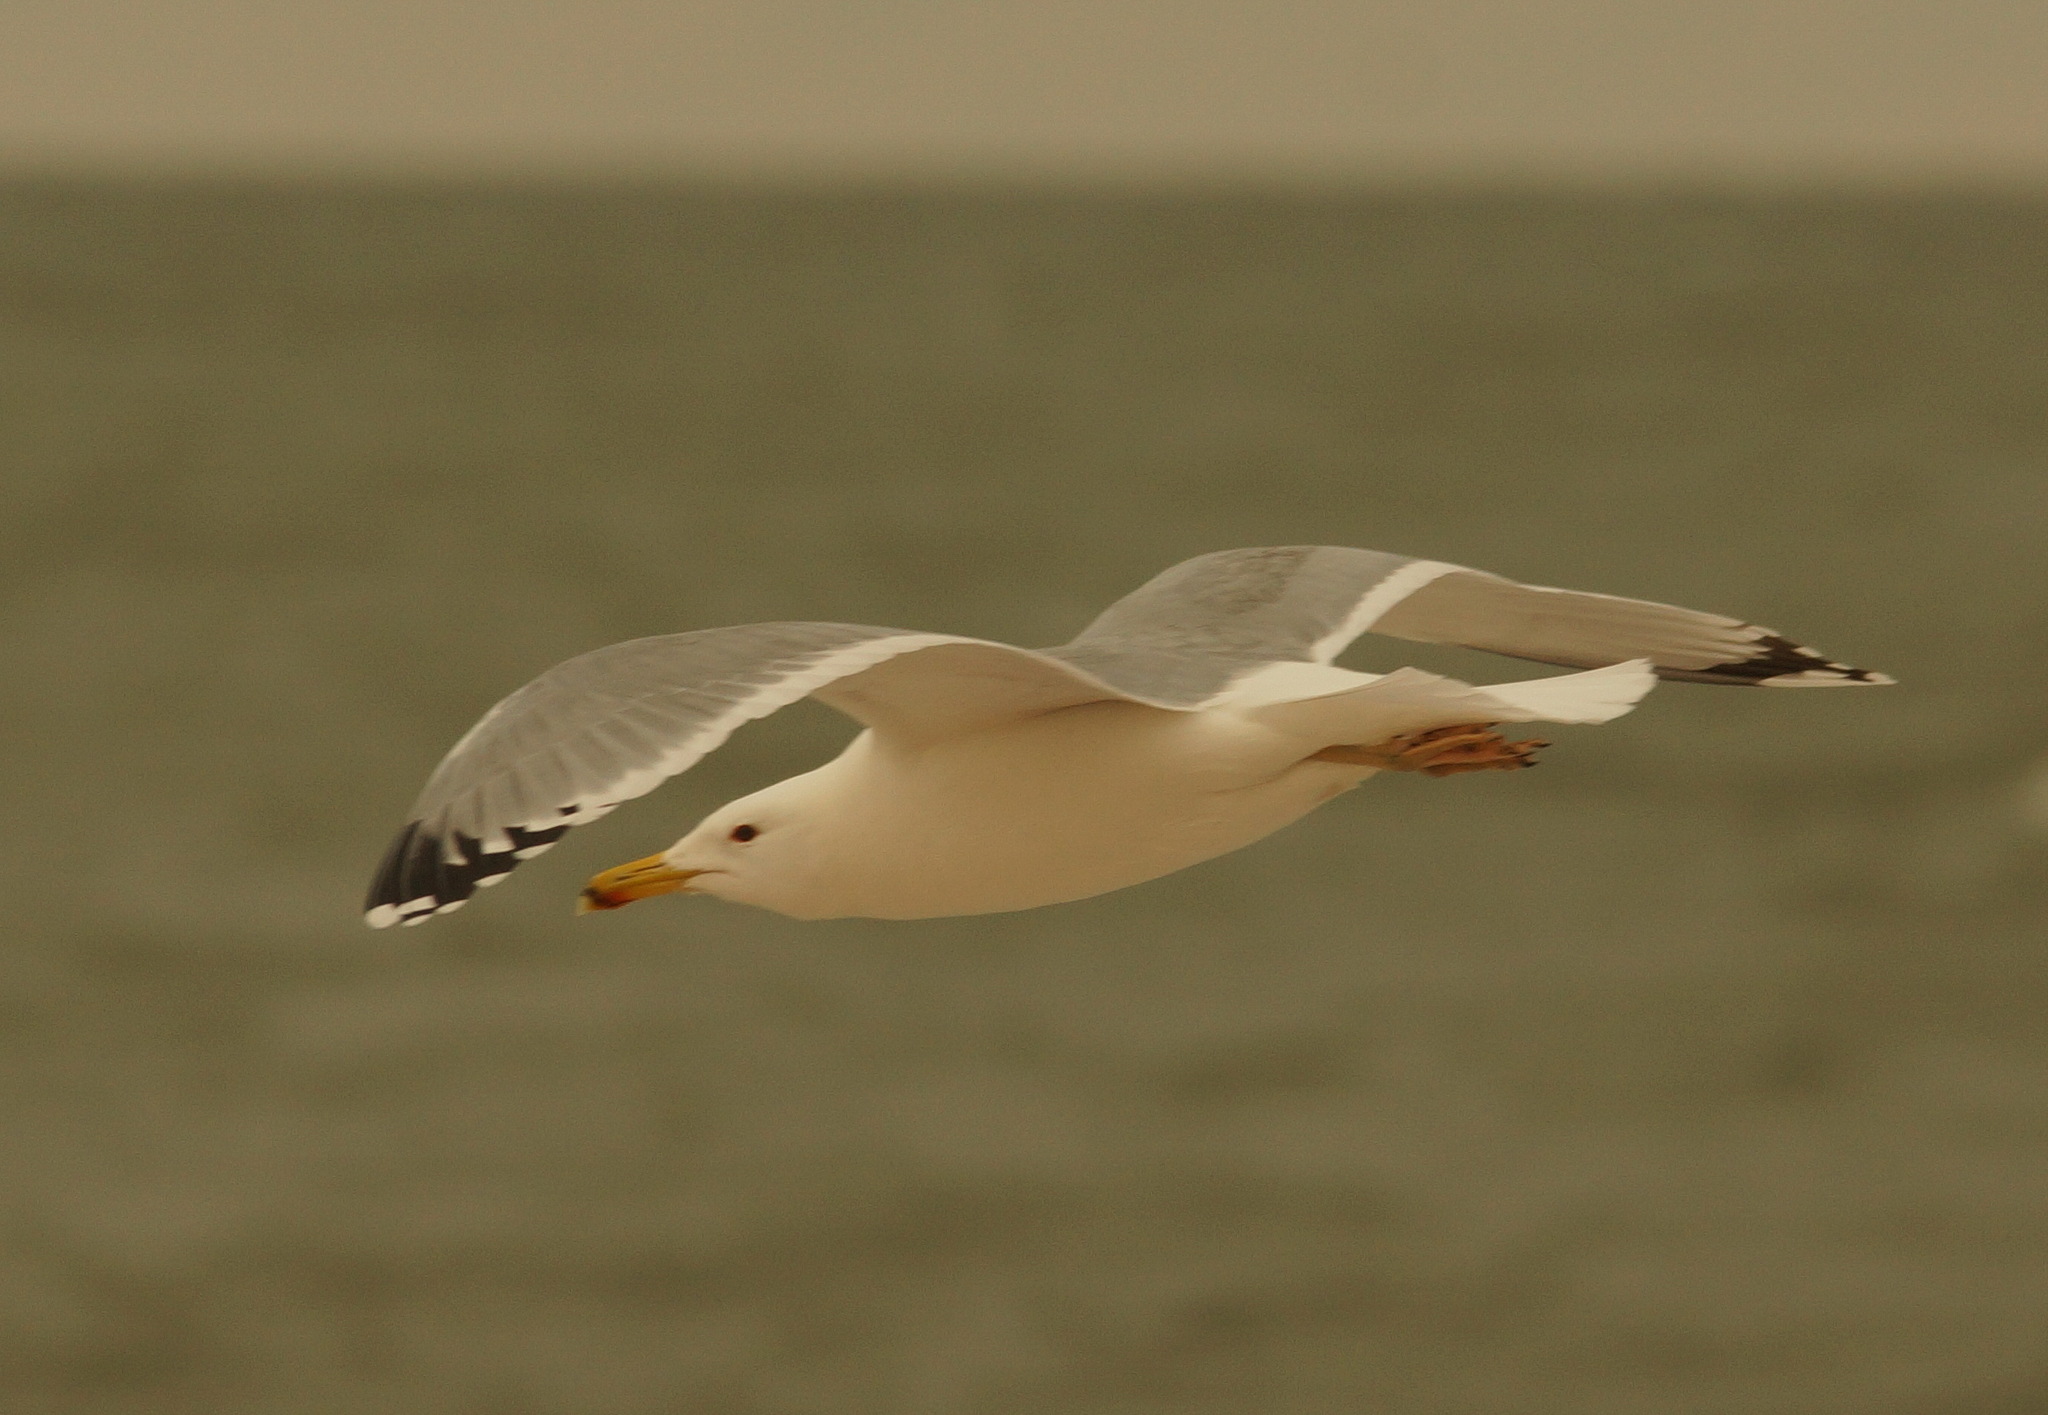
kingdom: Animalia
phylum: Chordata
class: Aves
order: Charadriiformes
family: Laridae
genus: Larus
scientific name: Larus cachinnans
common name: Caspian gull
